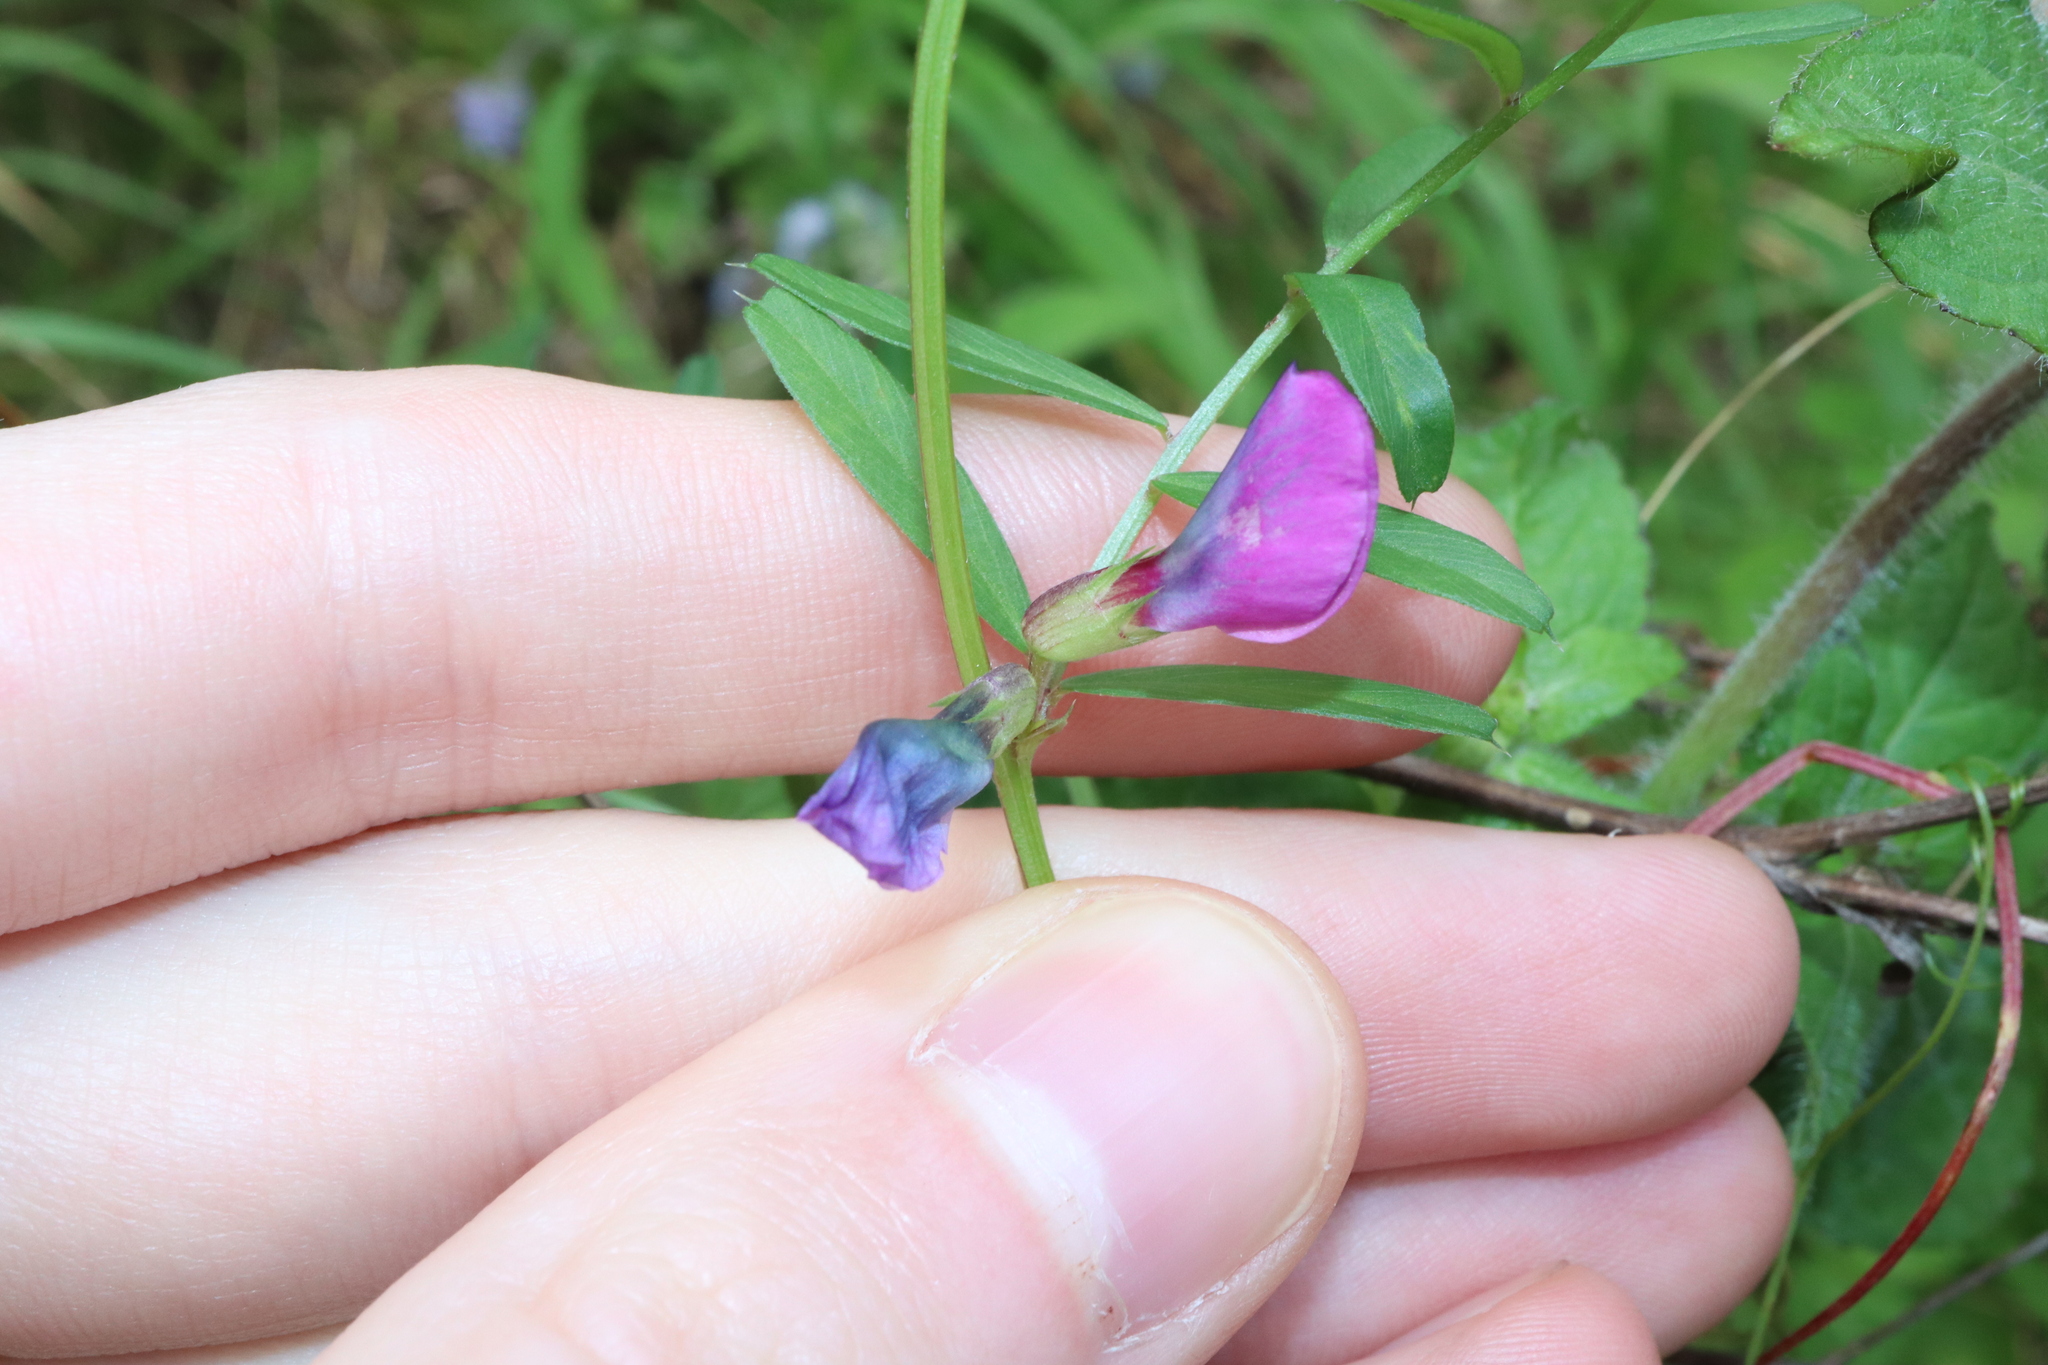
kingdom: Plantae
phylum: Tracheophyta
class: Magnoliopsida
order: Fabales
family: Fabaceae
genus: Vicia
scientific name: Vicia sativa
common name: Garden vetch
